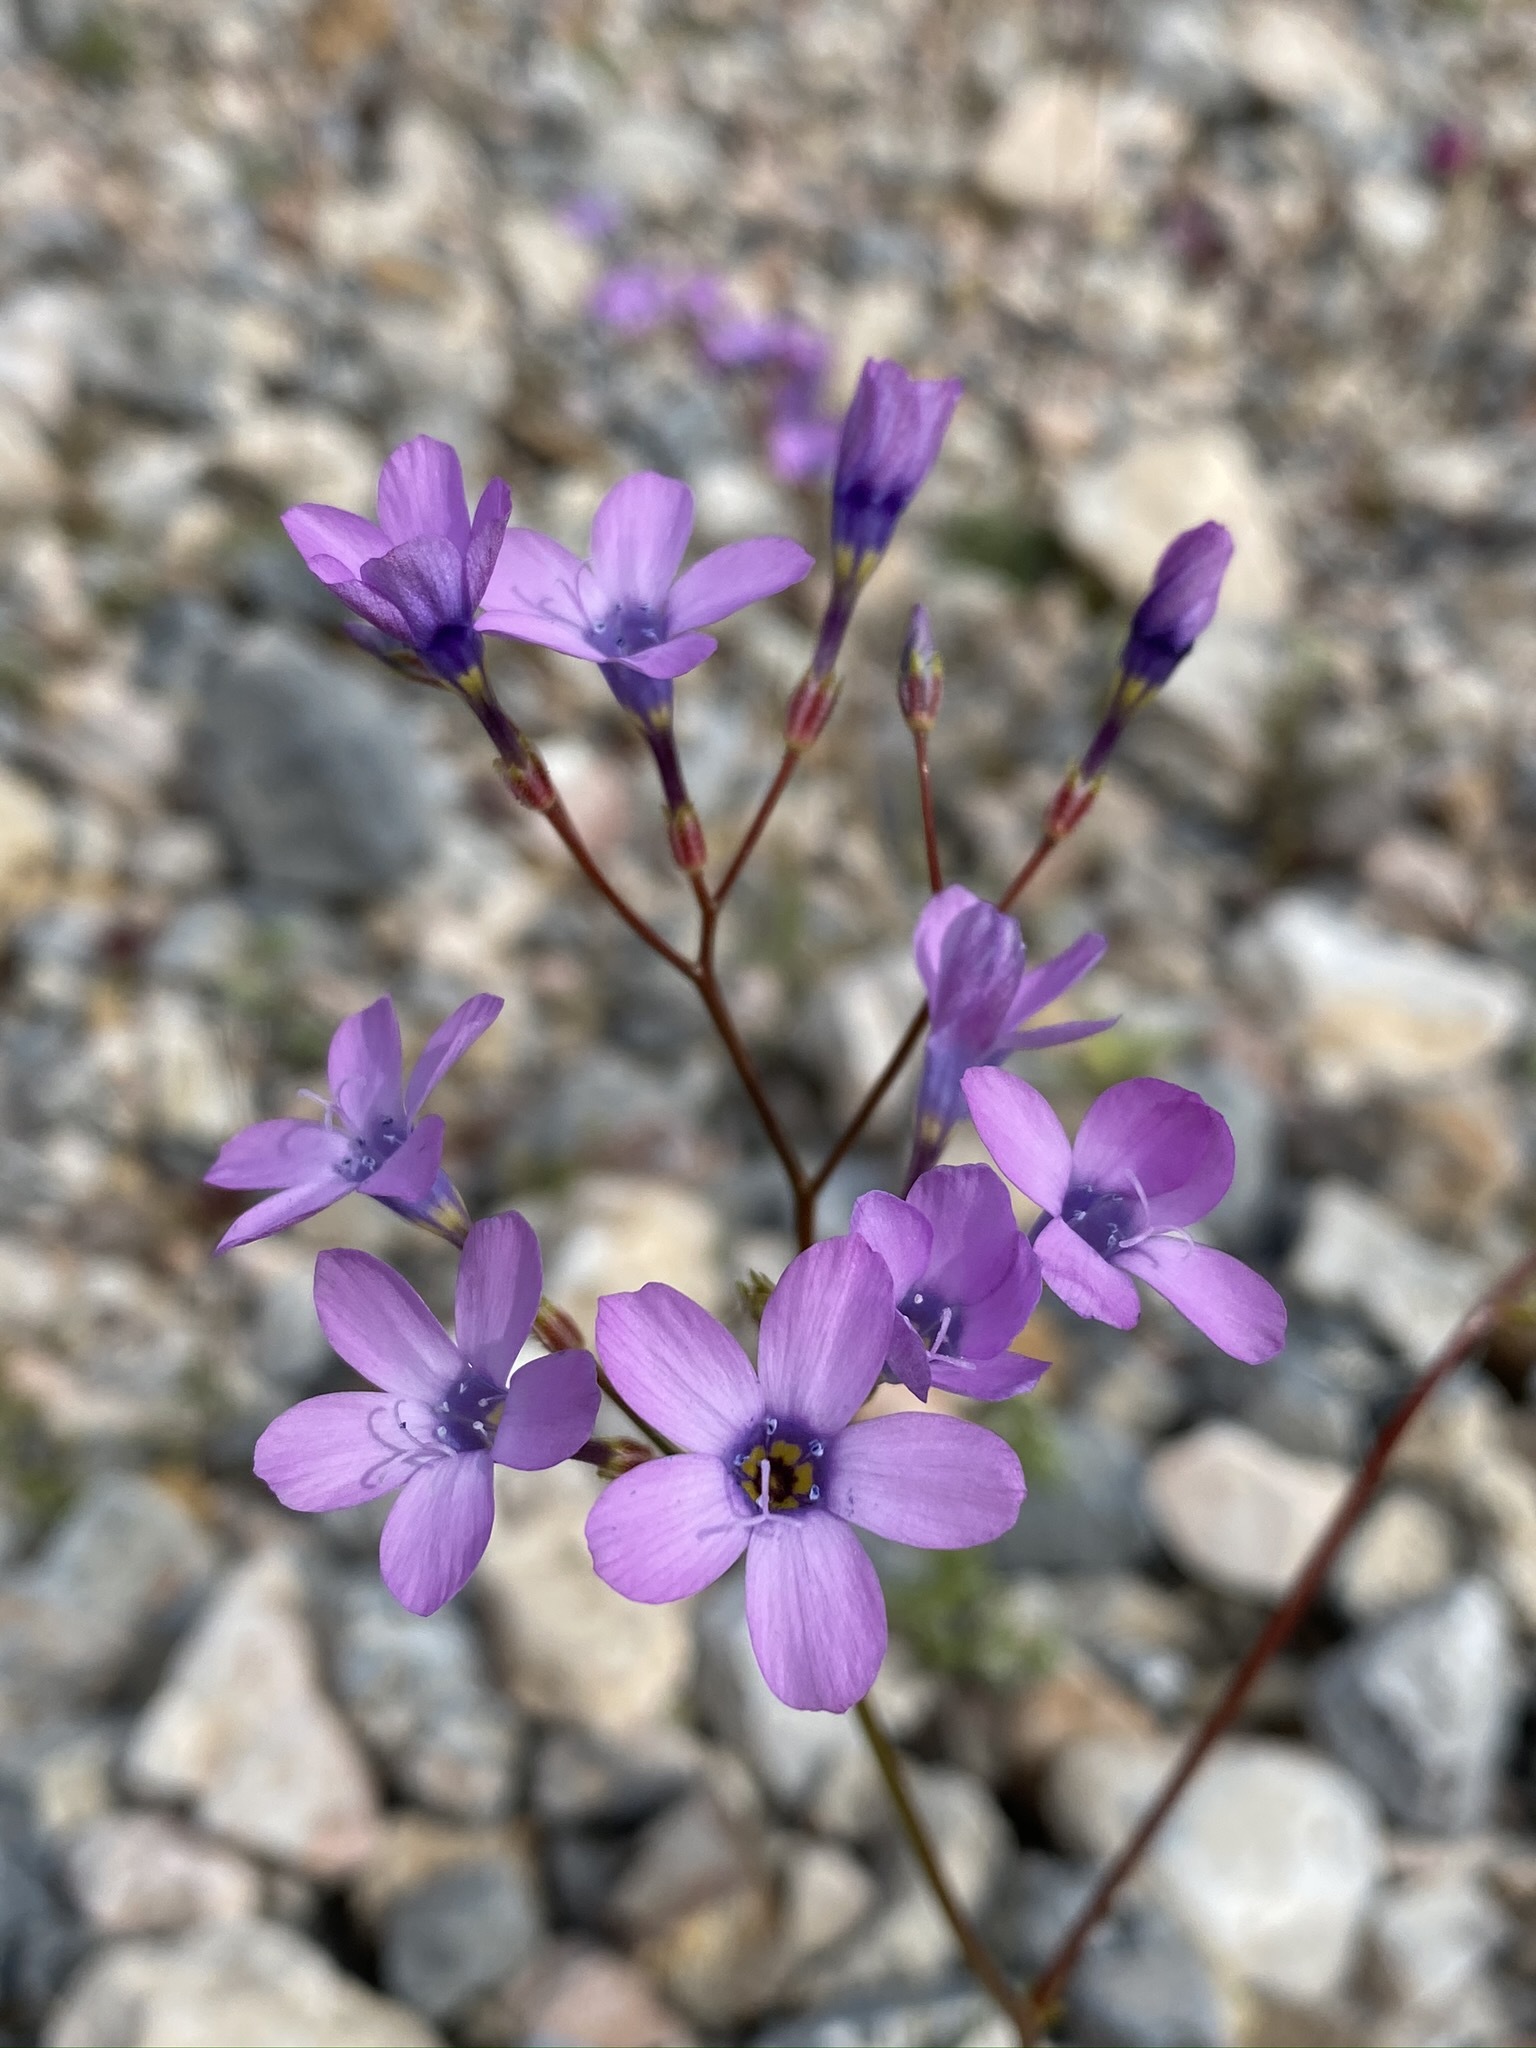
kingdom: Plantae
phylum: Tracheophyta
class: Magnoliopsida
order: Ericales
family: Polemoniaceae
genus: Gilia
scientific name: Gilia cana
